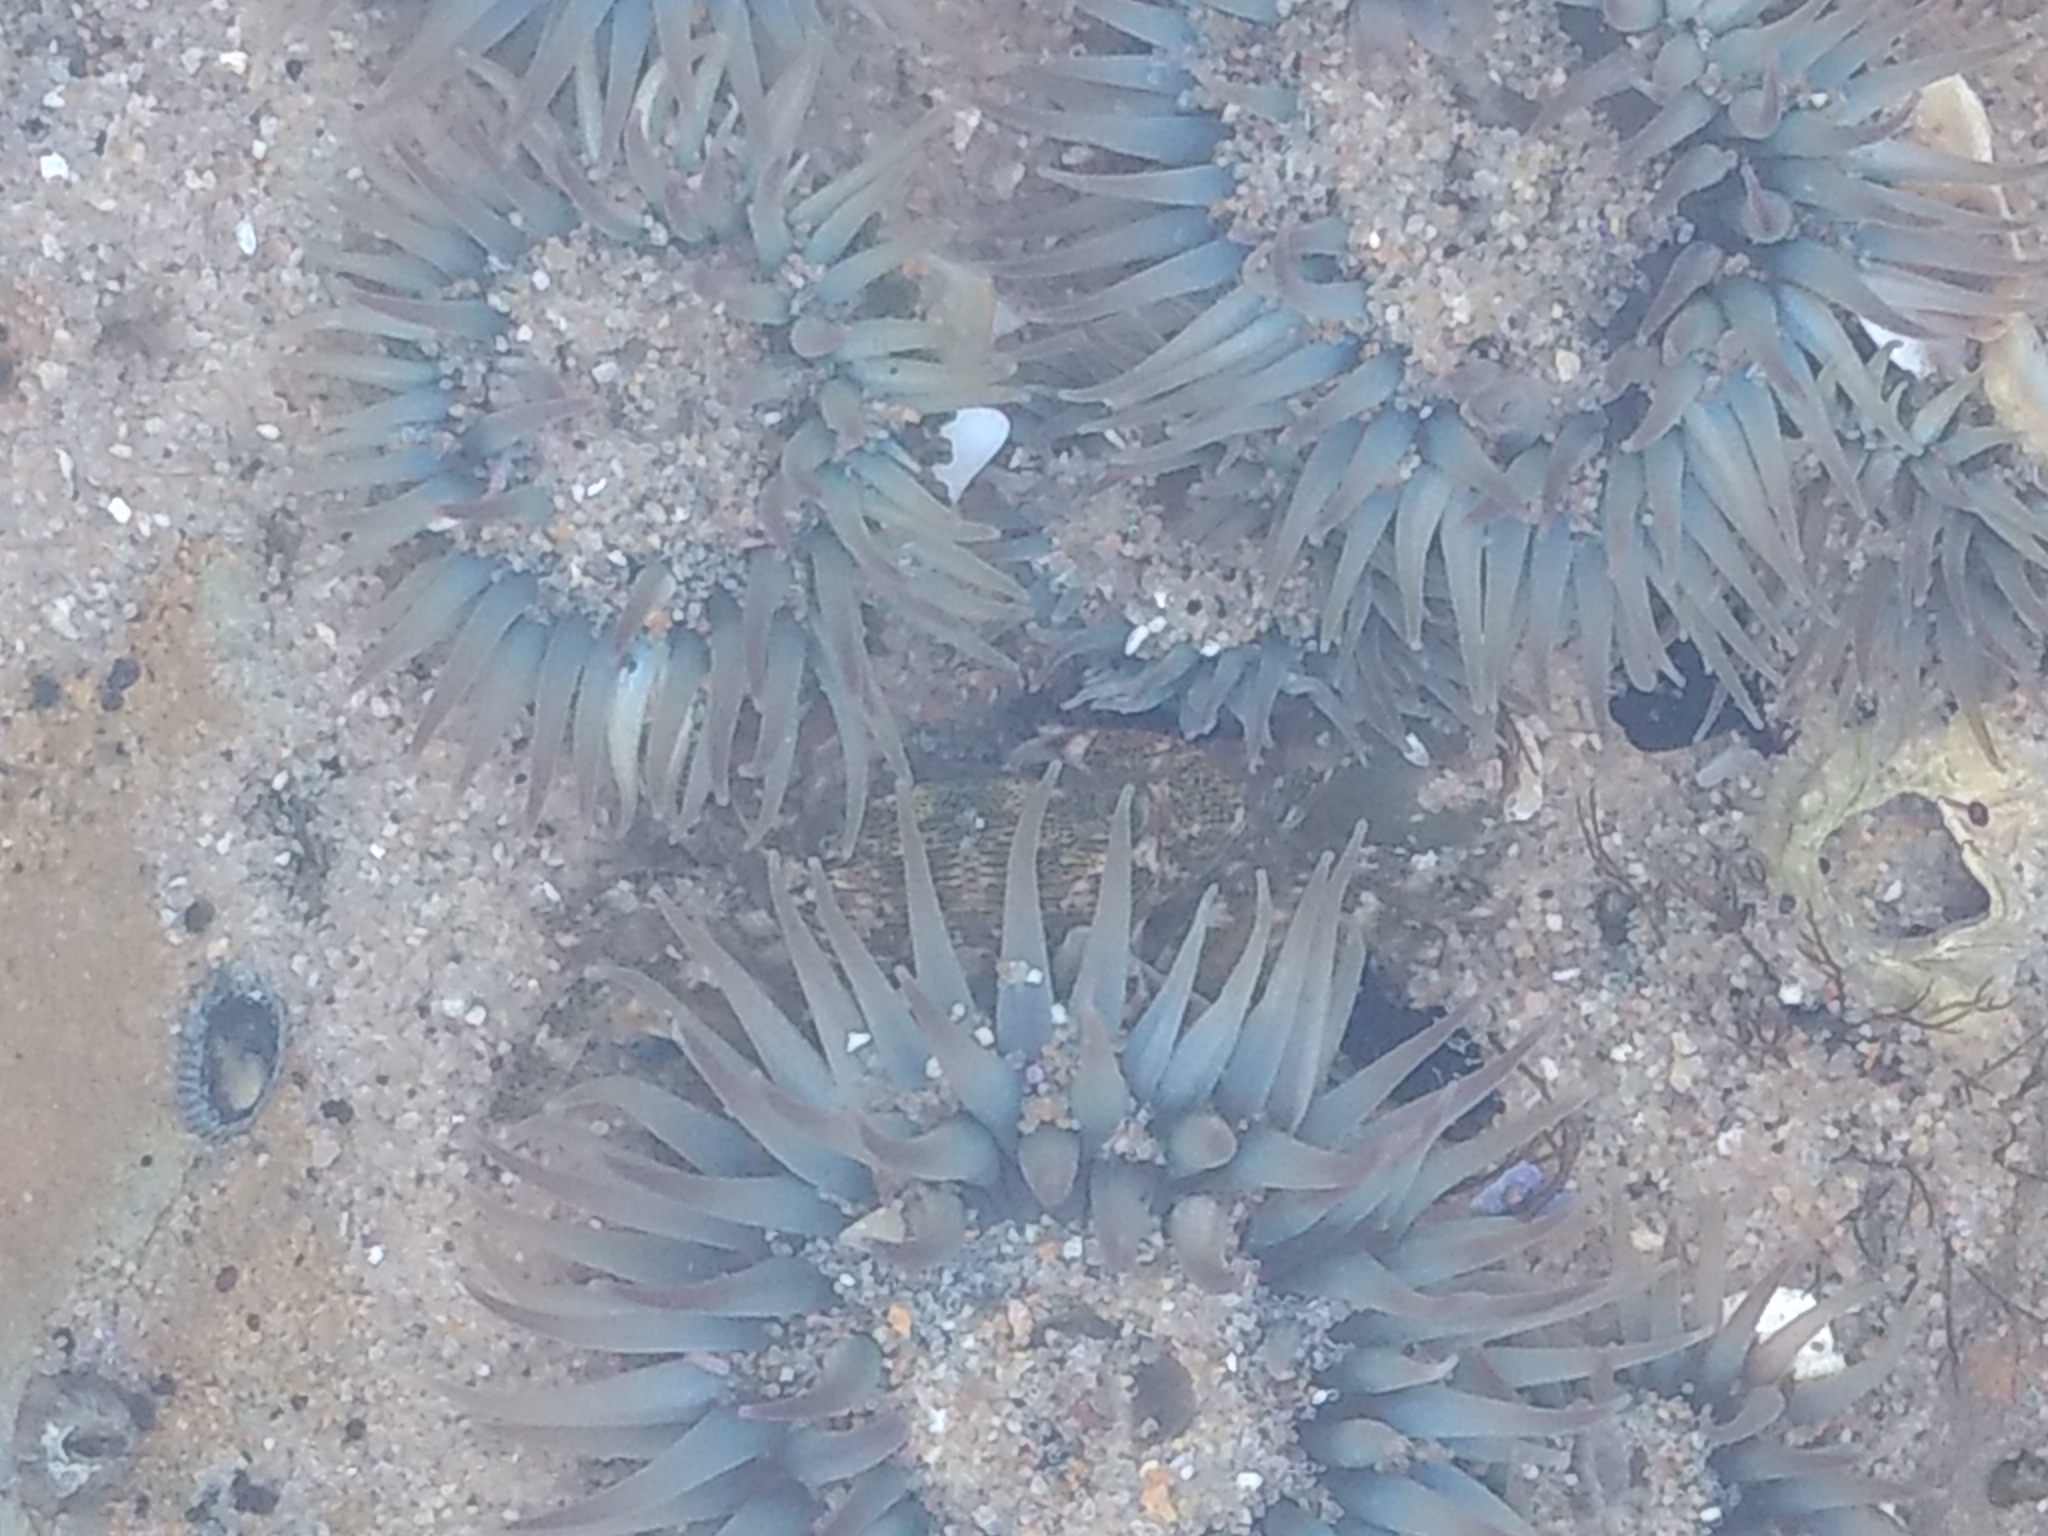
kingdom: Animalia
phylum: Cnidaria
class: Anthozoa
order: Actiniaria
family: Actiniidae
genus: Anthopleura
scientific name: Anthopleura elegantissima
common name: Clonal anemone
